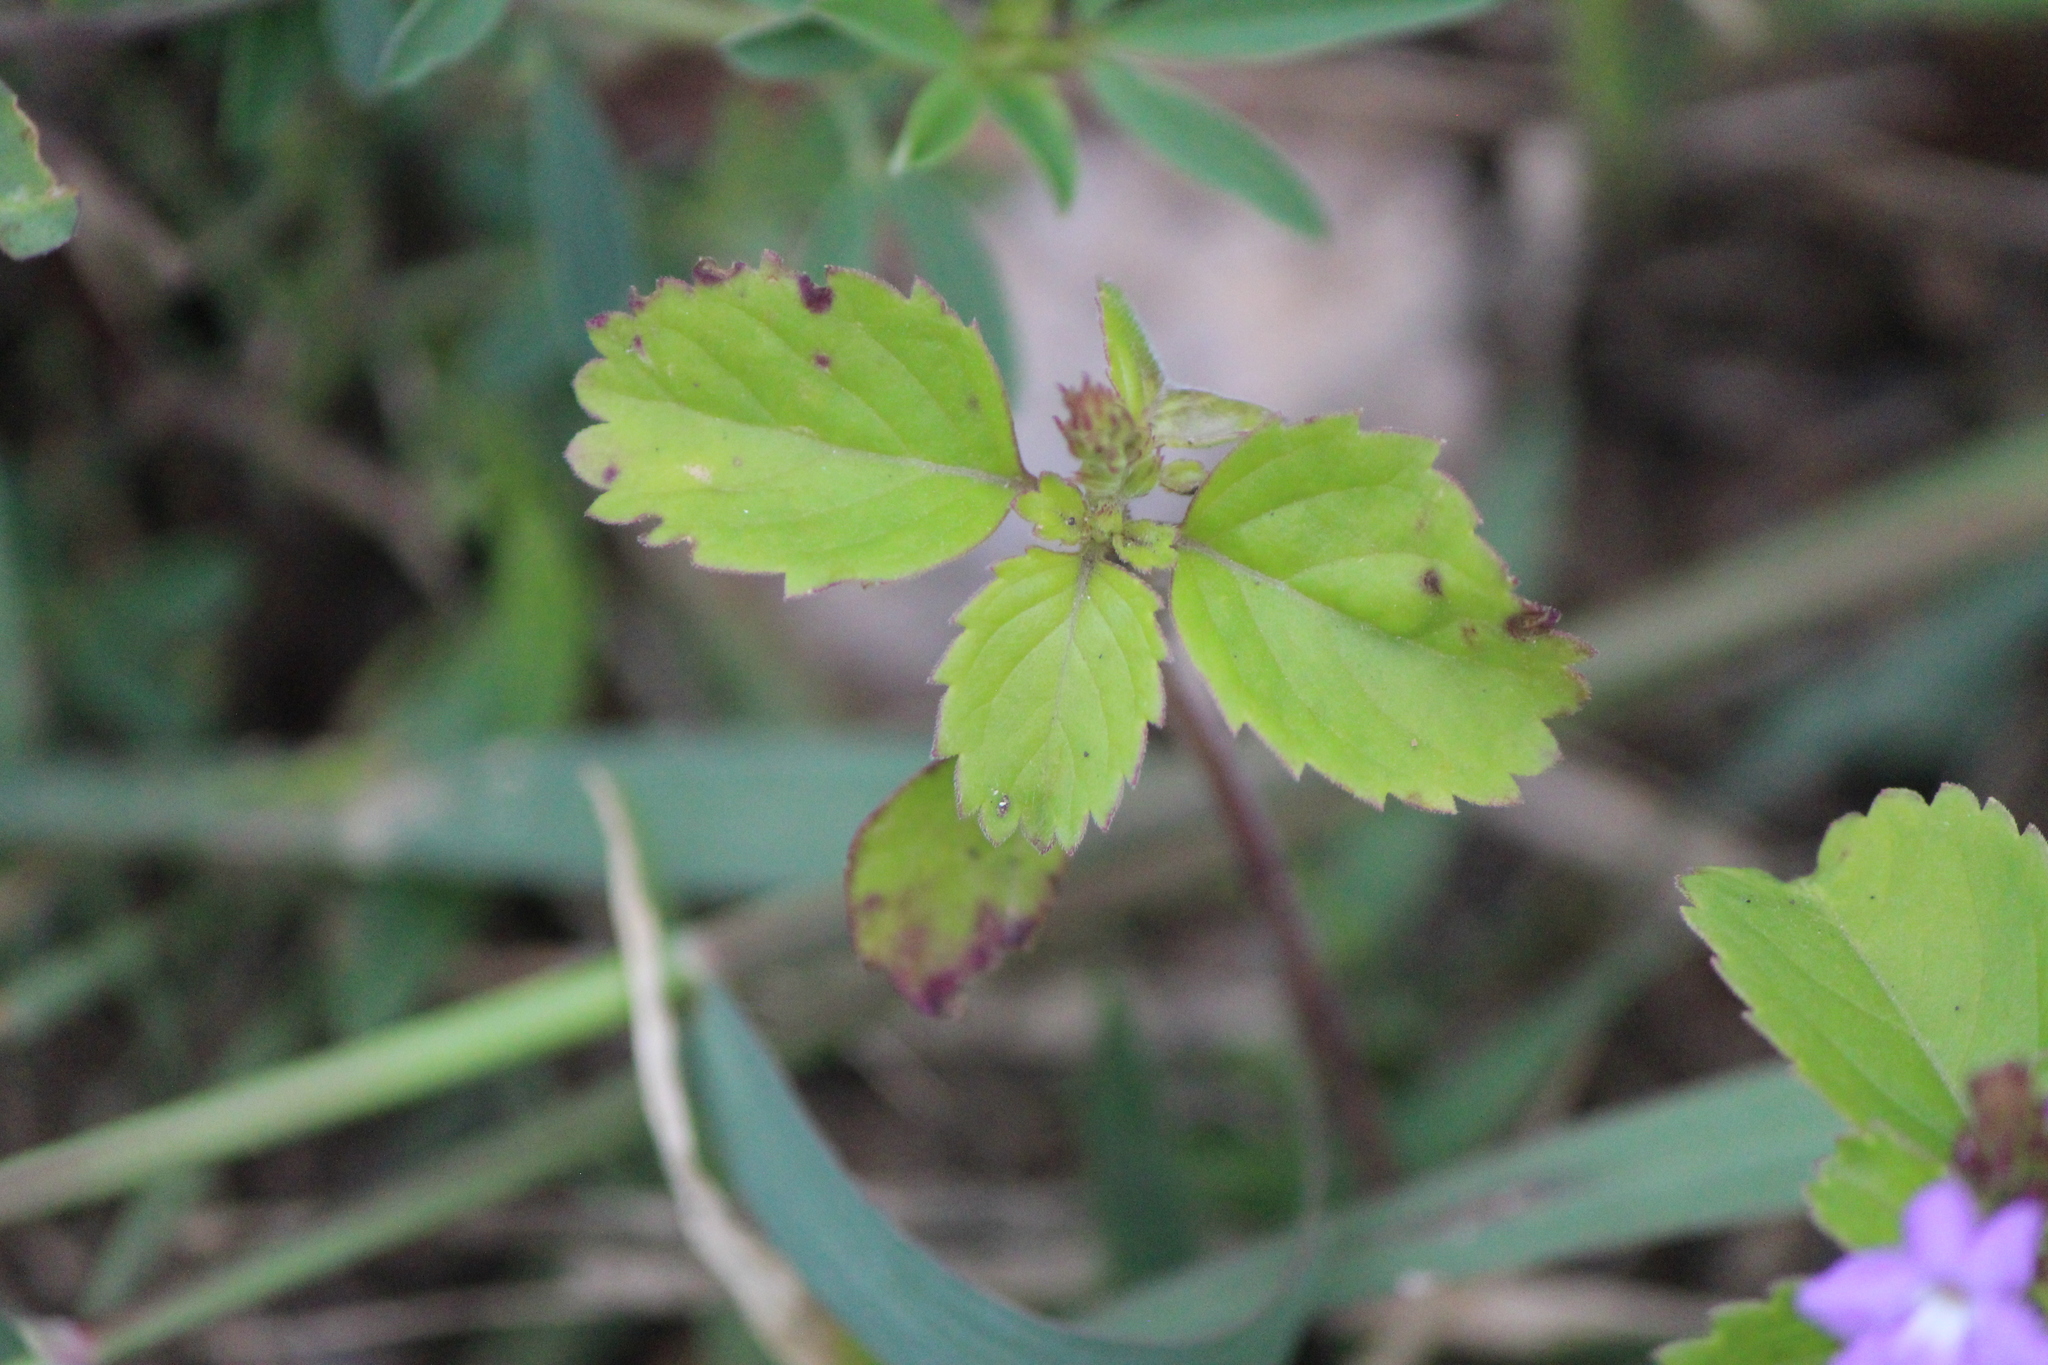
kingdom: Plantae
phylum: Tracheophyta
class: Magnoliopsida
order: Lamiales
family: Verbenaceae
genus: Bouchea
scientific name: Bouchea prismatica
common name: Vervine
